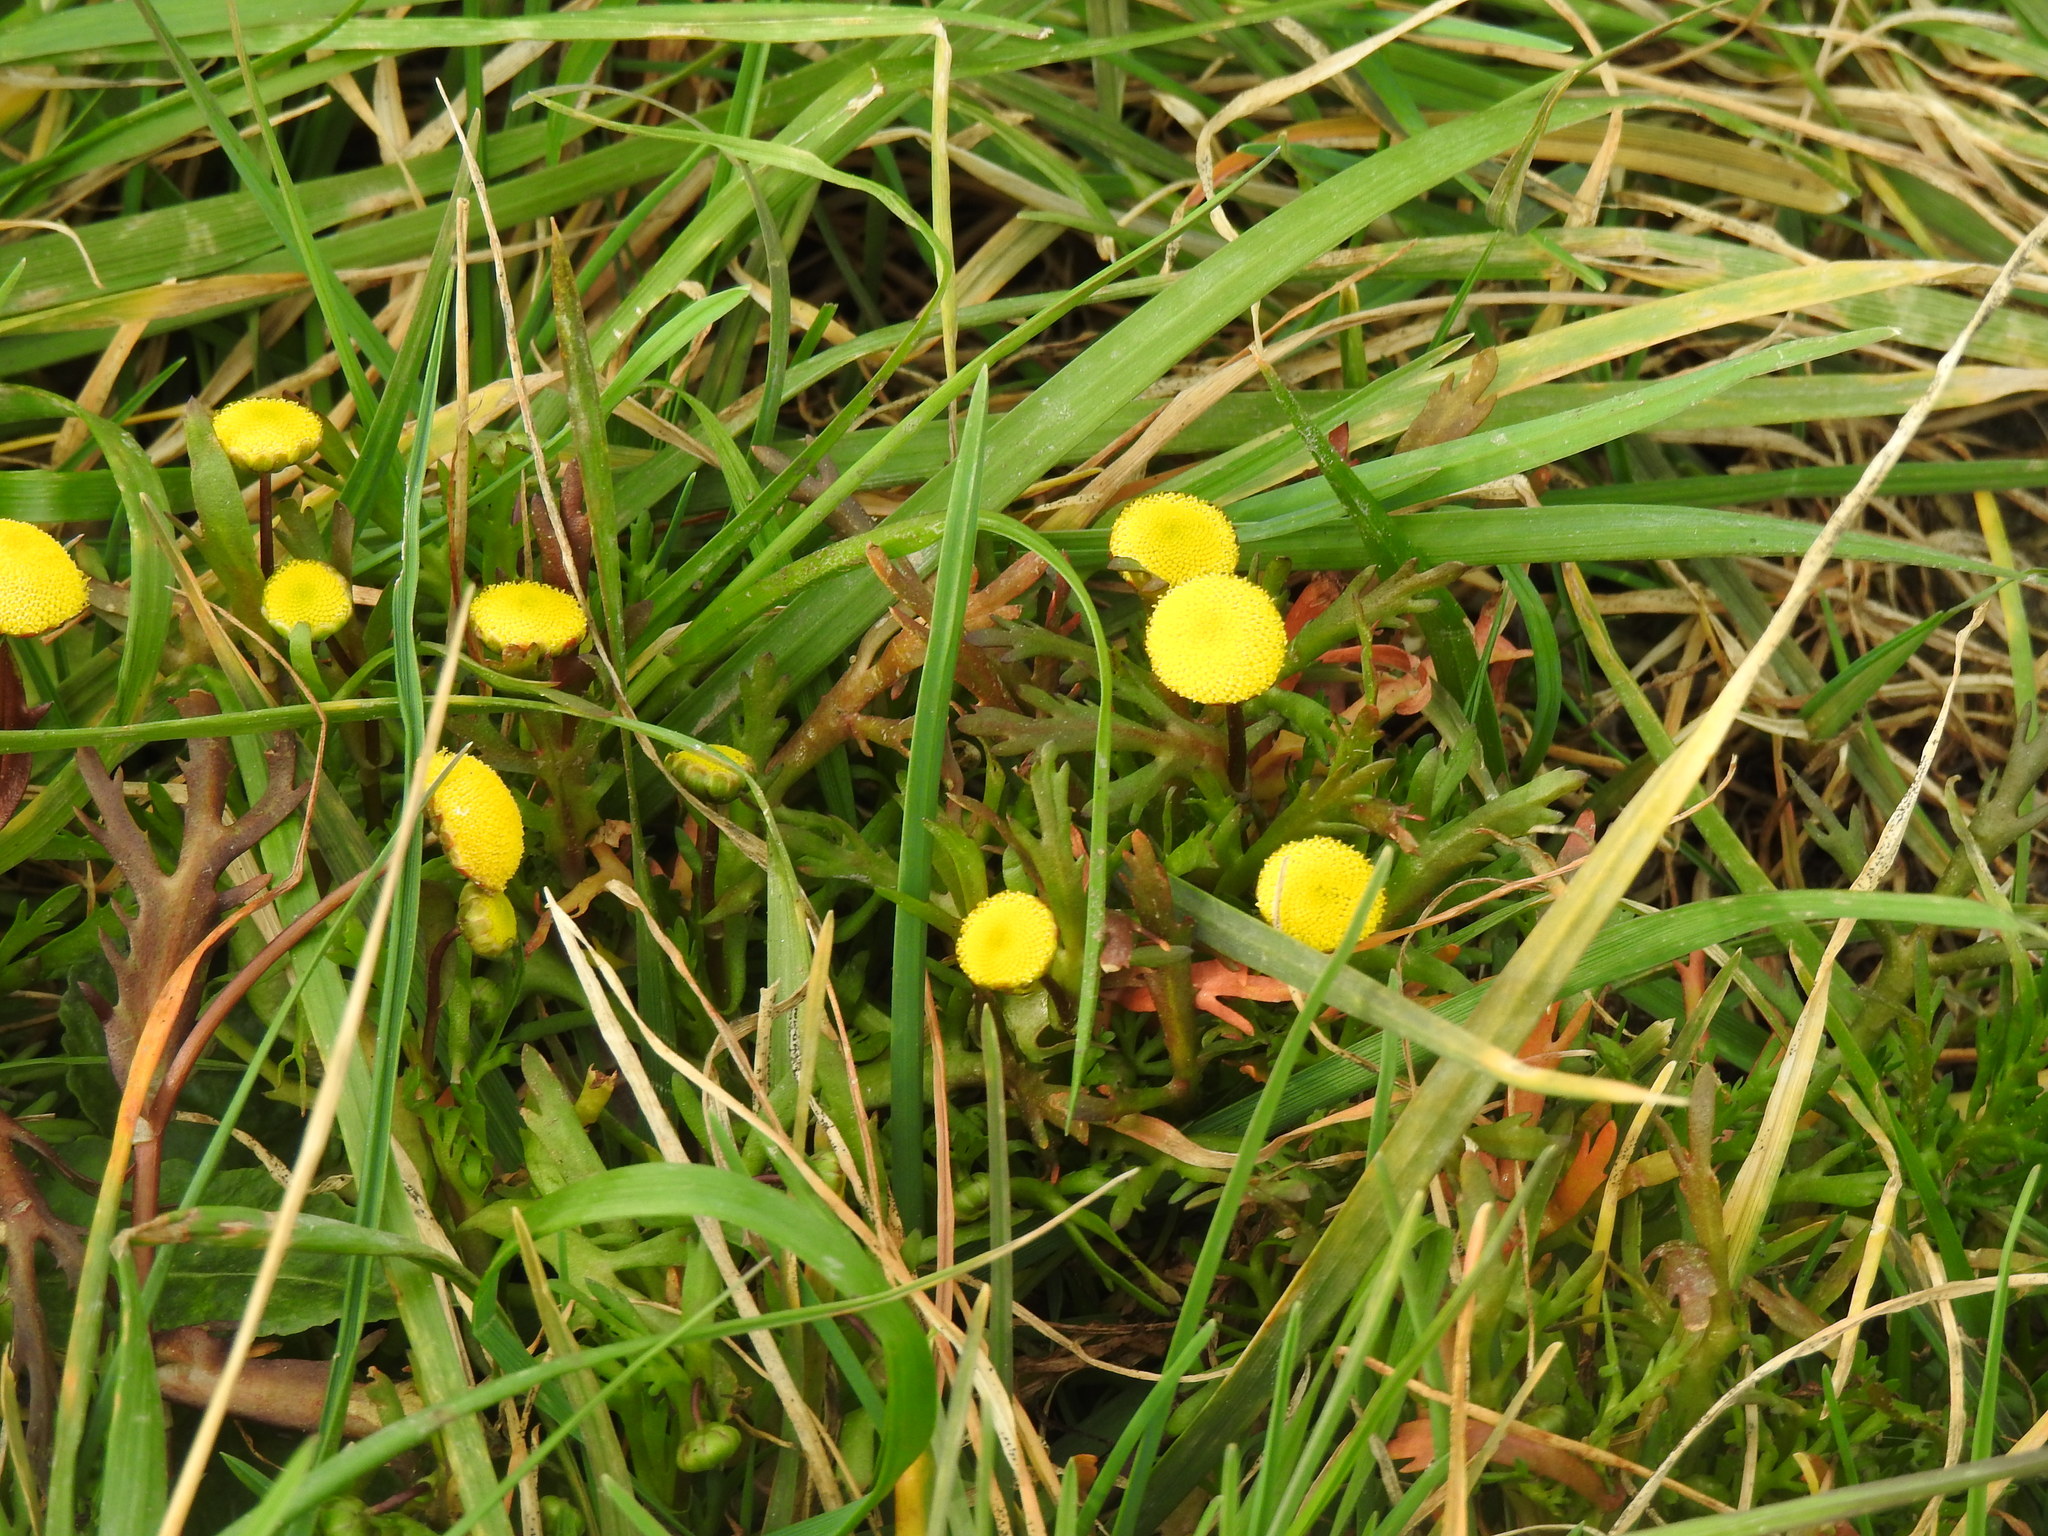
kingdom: Plantae
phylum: Tracheophyta
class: Magnoliopsida
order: Asterales
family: Asteraceae
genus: Cotula
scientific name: Cotula coronopifolia
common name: Buttonweed
